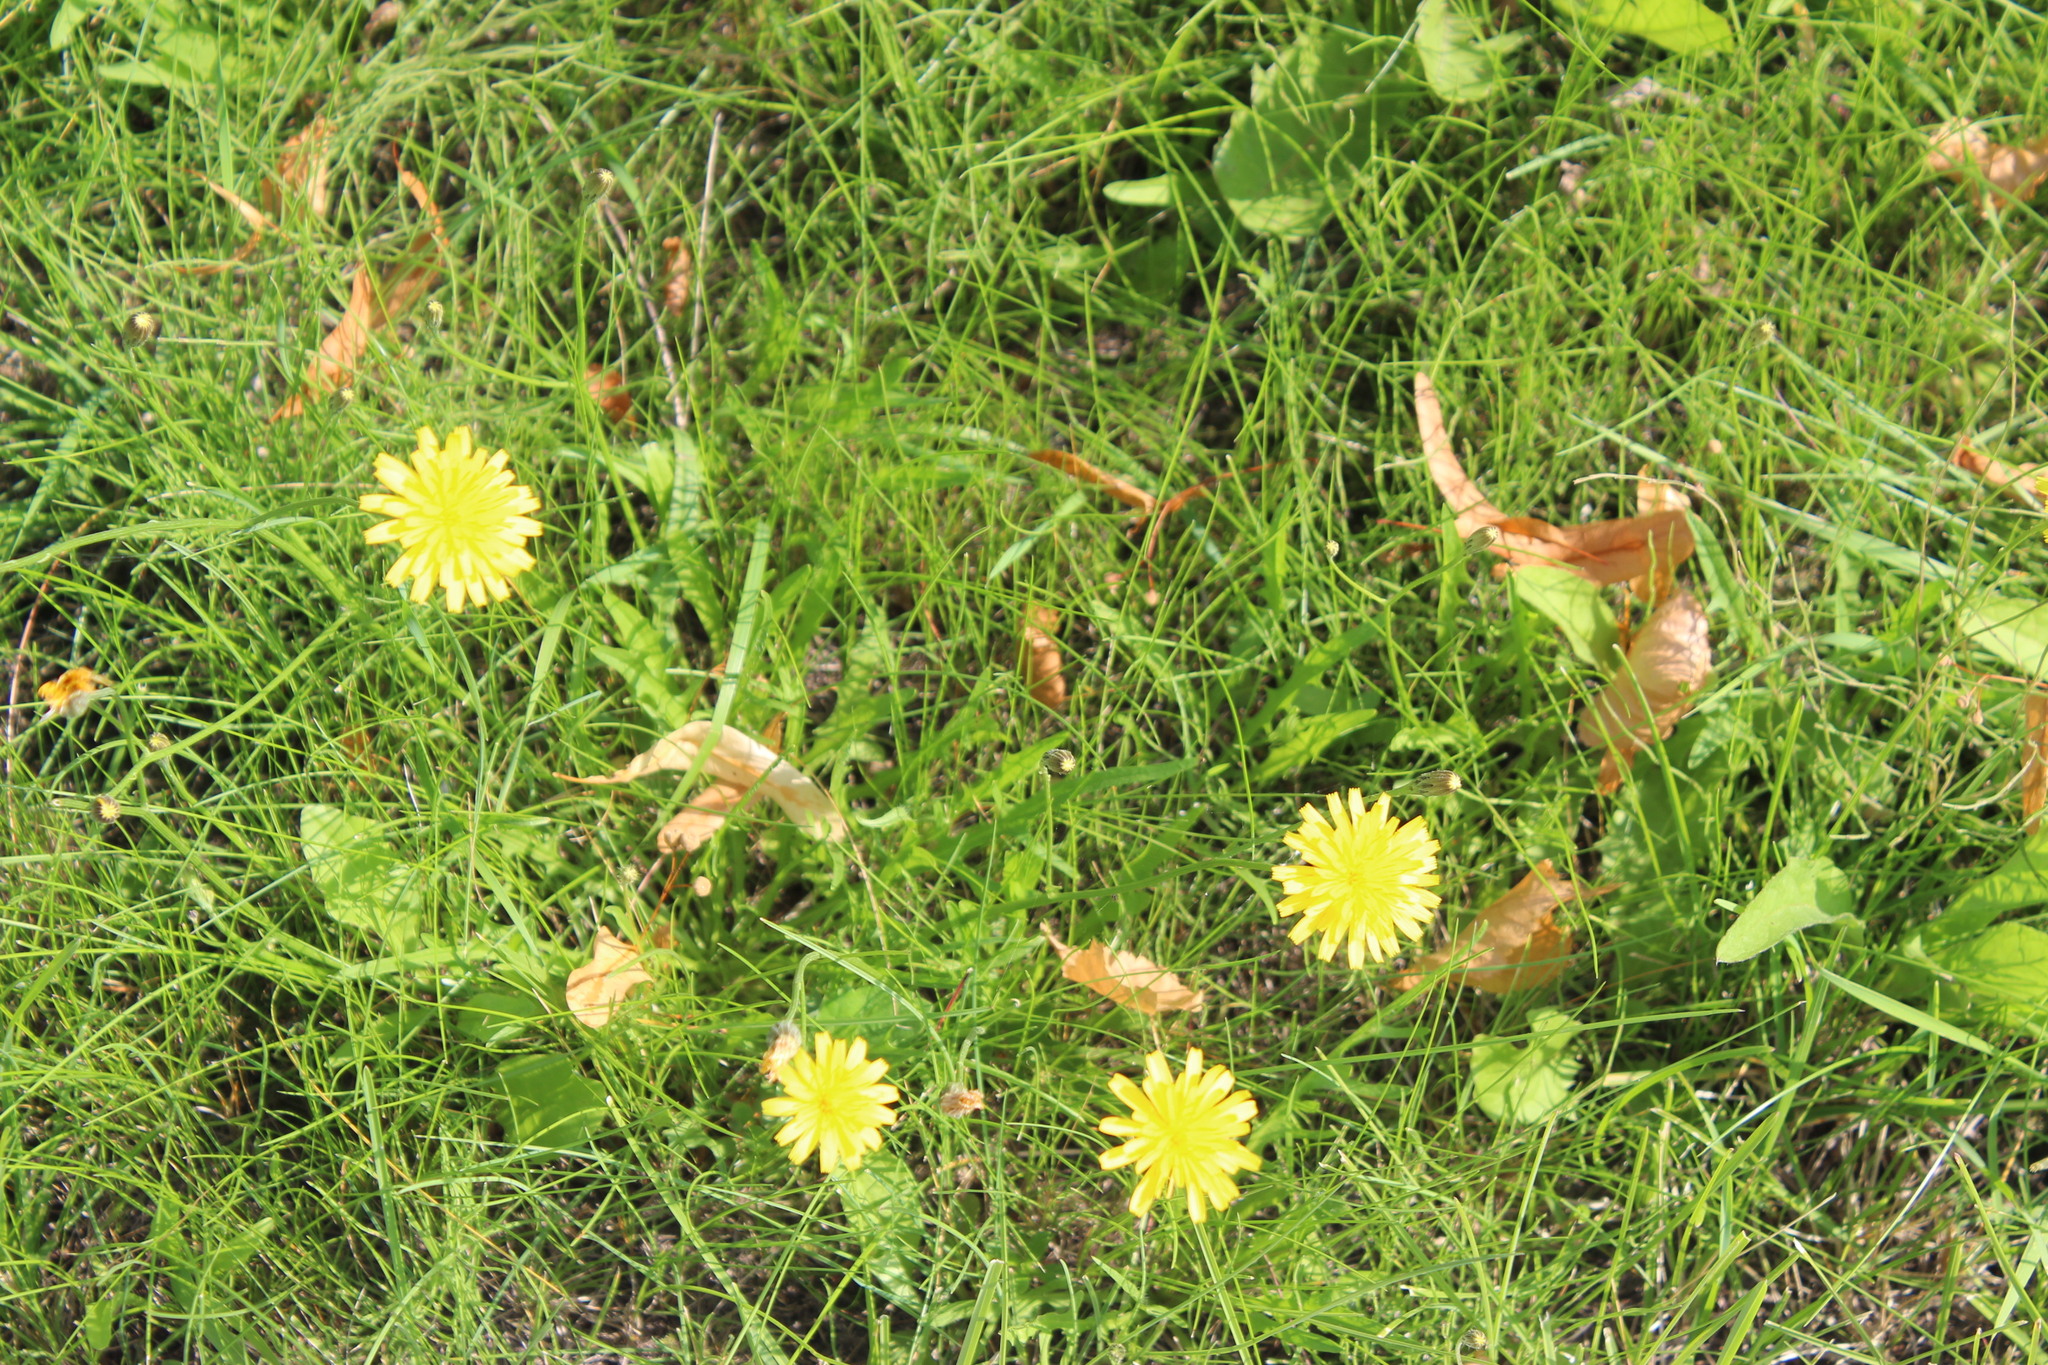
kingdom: Plantae
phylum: Tracheophyta
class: Magnoliopsida
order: Asterales
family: Asteraceae
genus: Scorzoneroides
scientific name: Scorzoneroides autumnalis
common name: Autumn hawkbit
